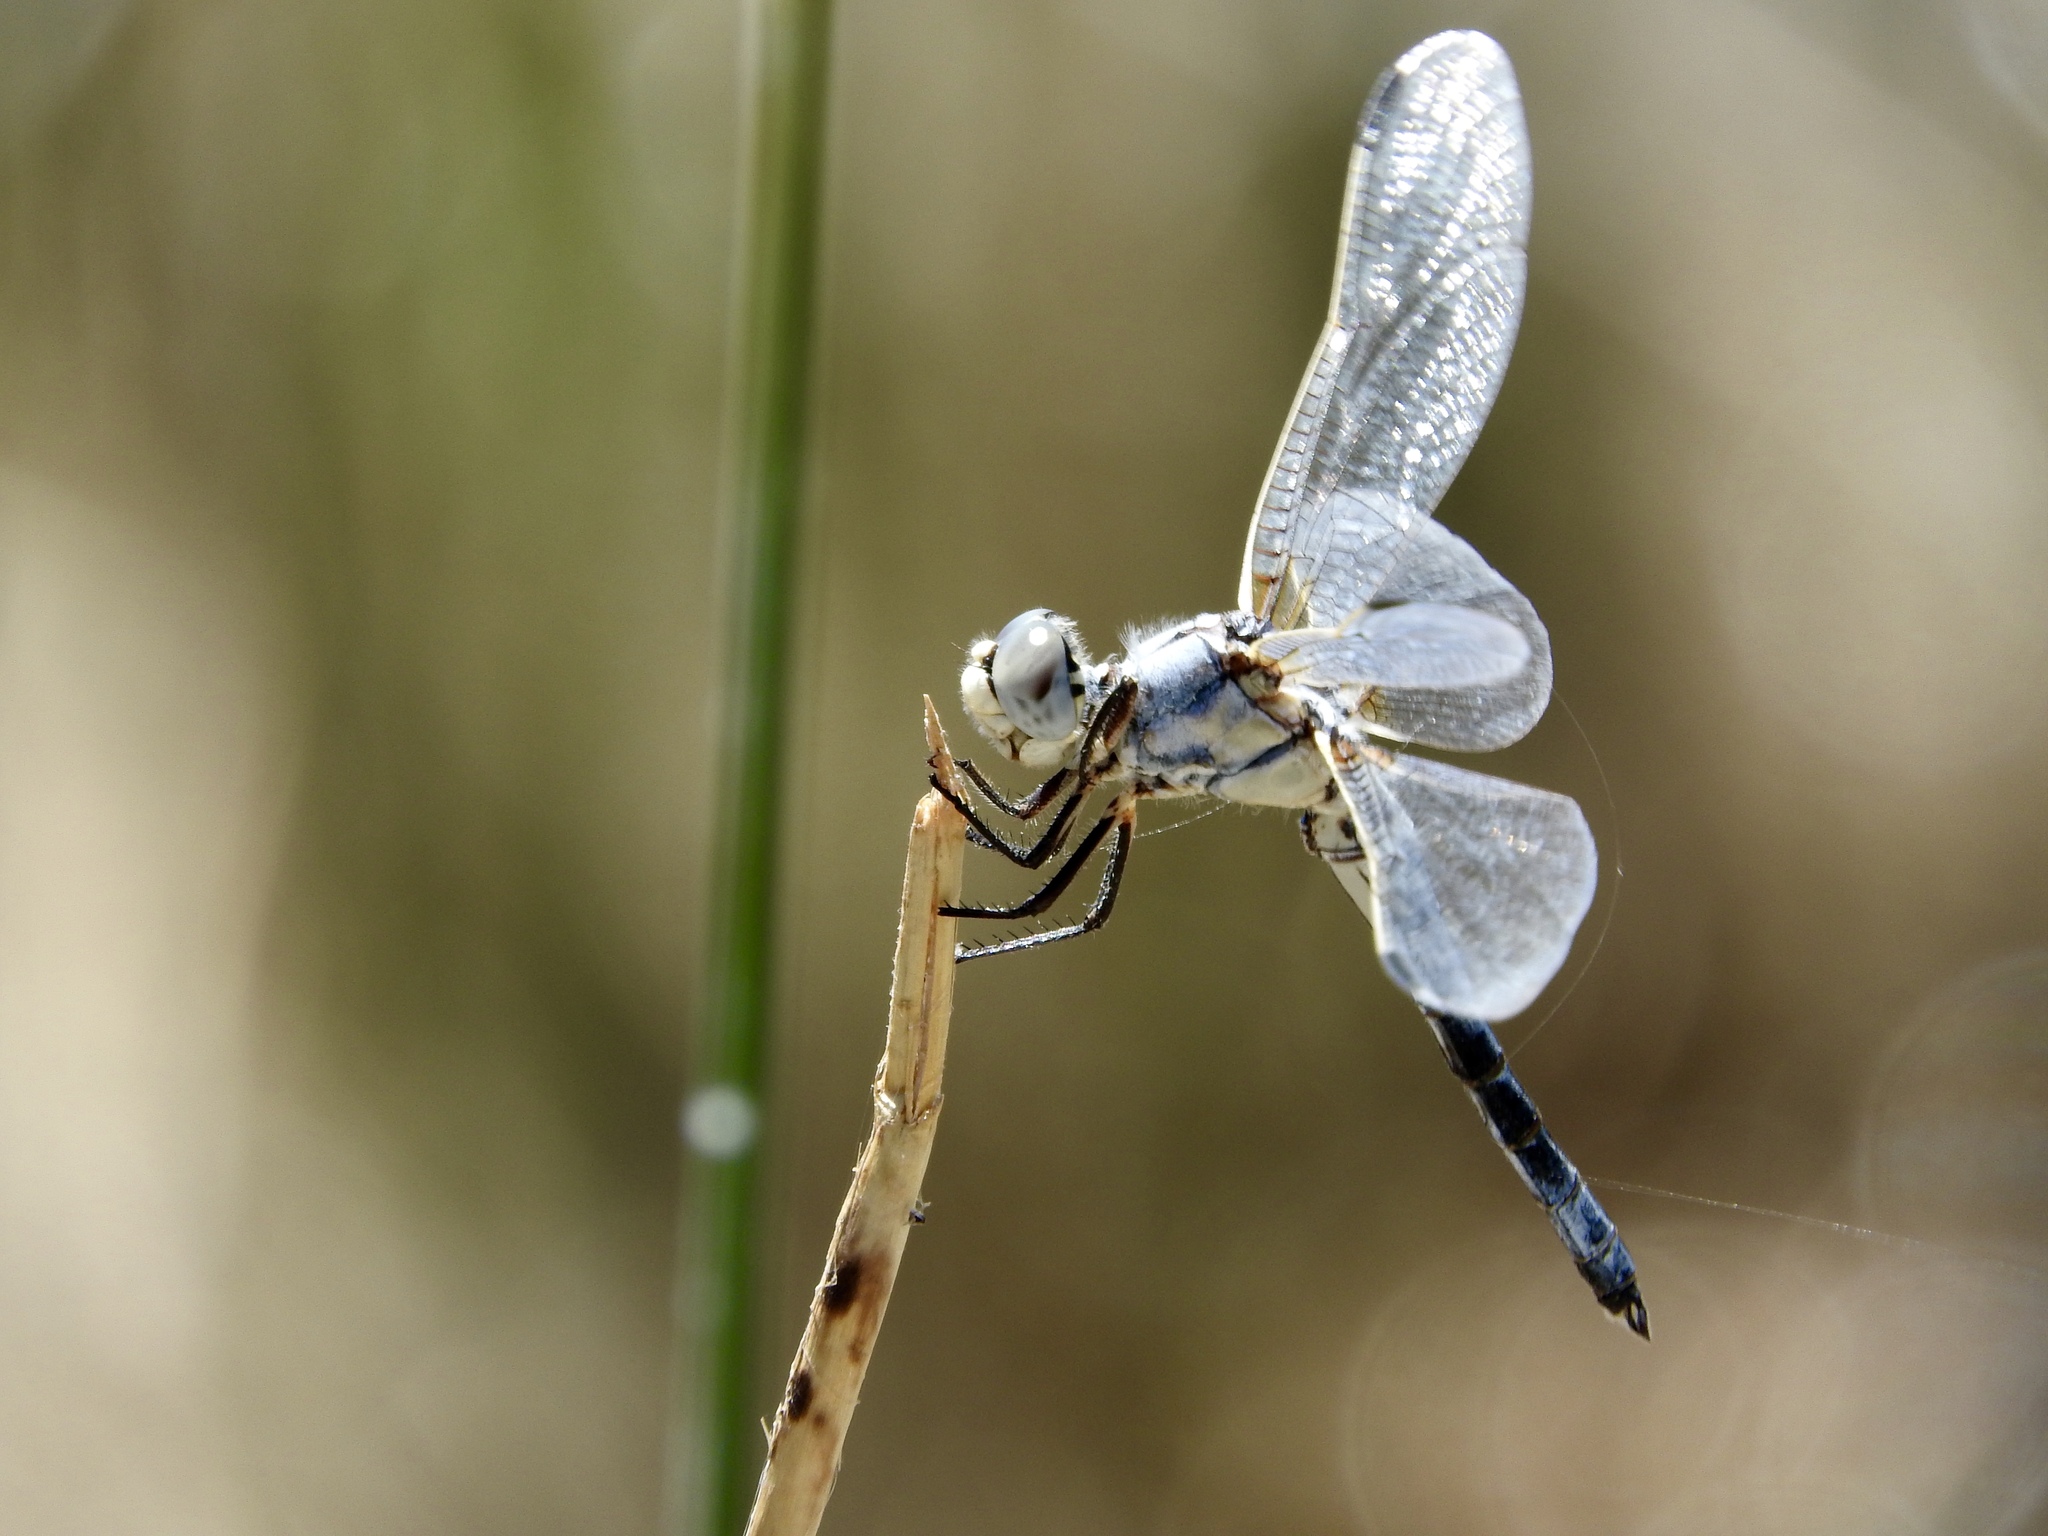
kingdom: Animalia
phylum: Arthropoda
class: Insecta
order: Odonata
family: Libellulidae
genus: Libellula
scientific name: Libellula composita
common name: Bleached skimmer
